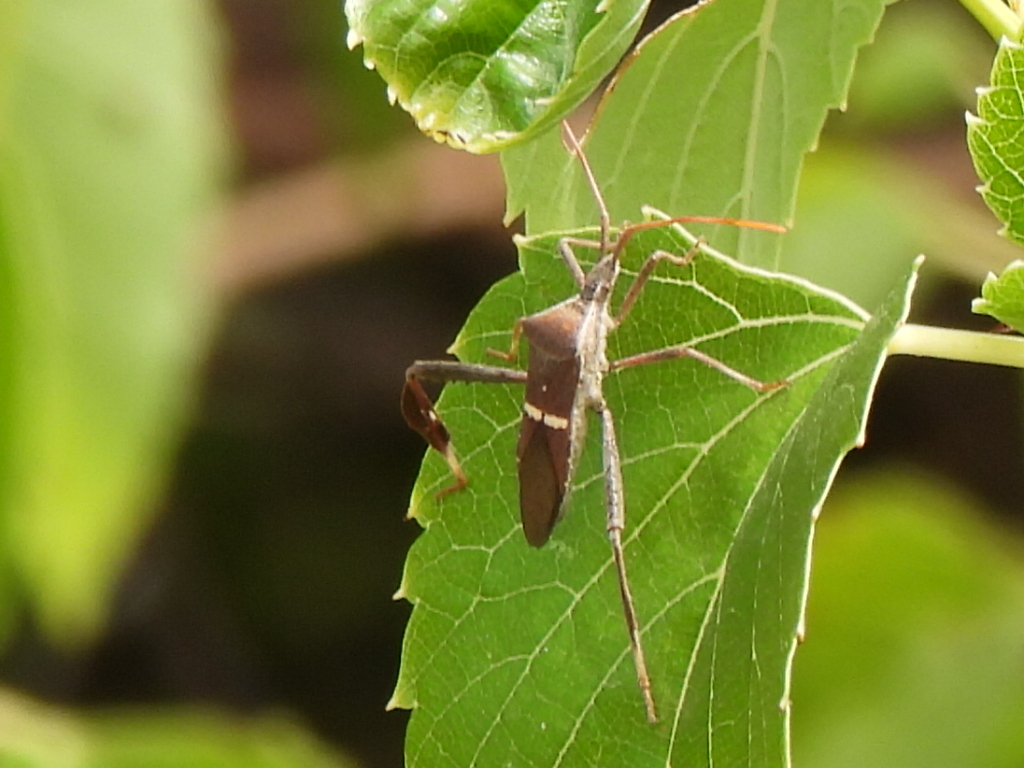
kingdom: Animalia
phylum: Arthropoda
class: Insecta
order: Hemiptera
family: Coreidae
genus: Leptoglossus
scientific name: Leptoglossus phyllopus
